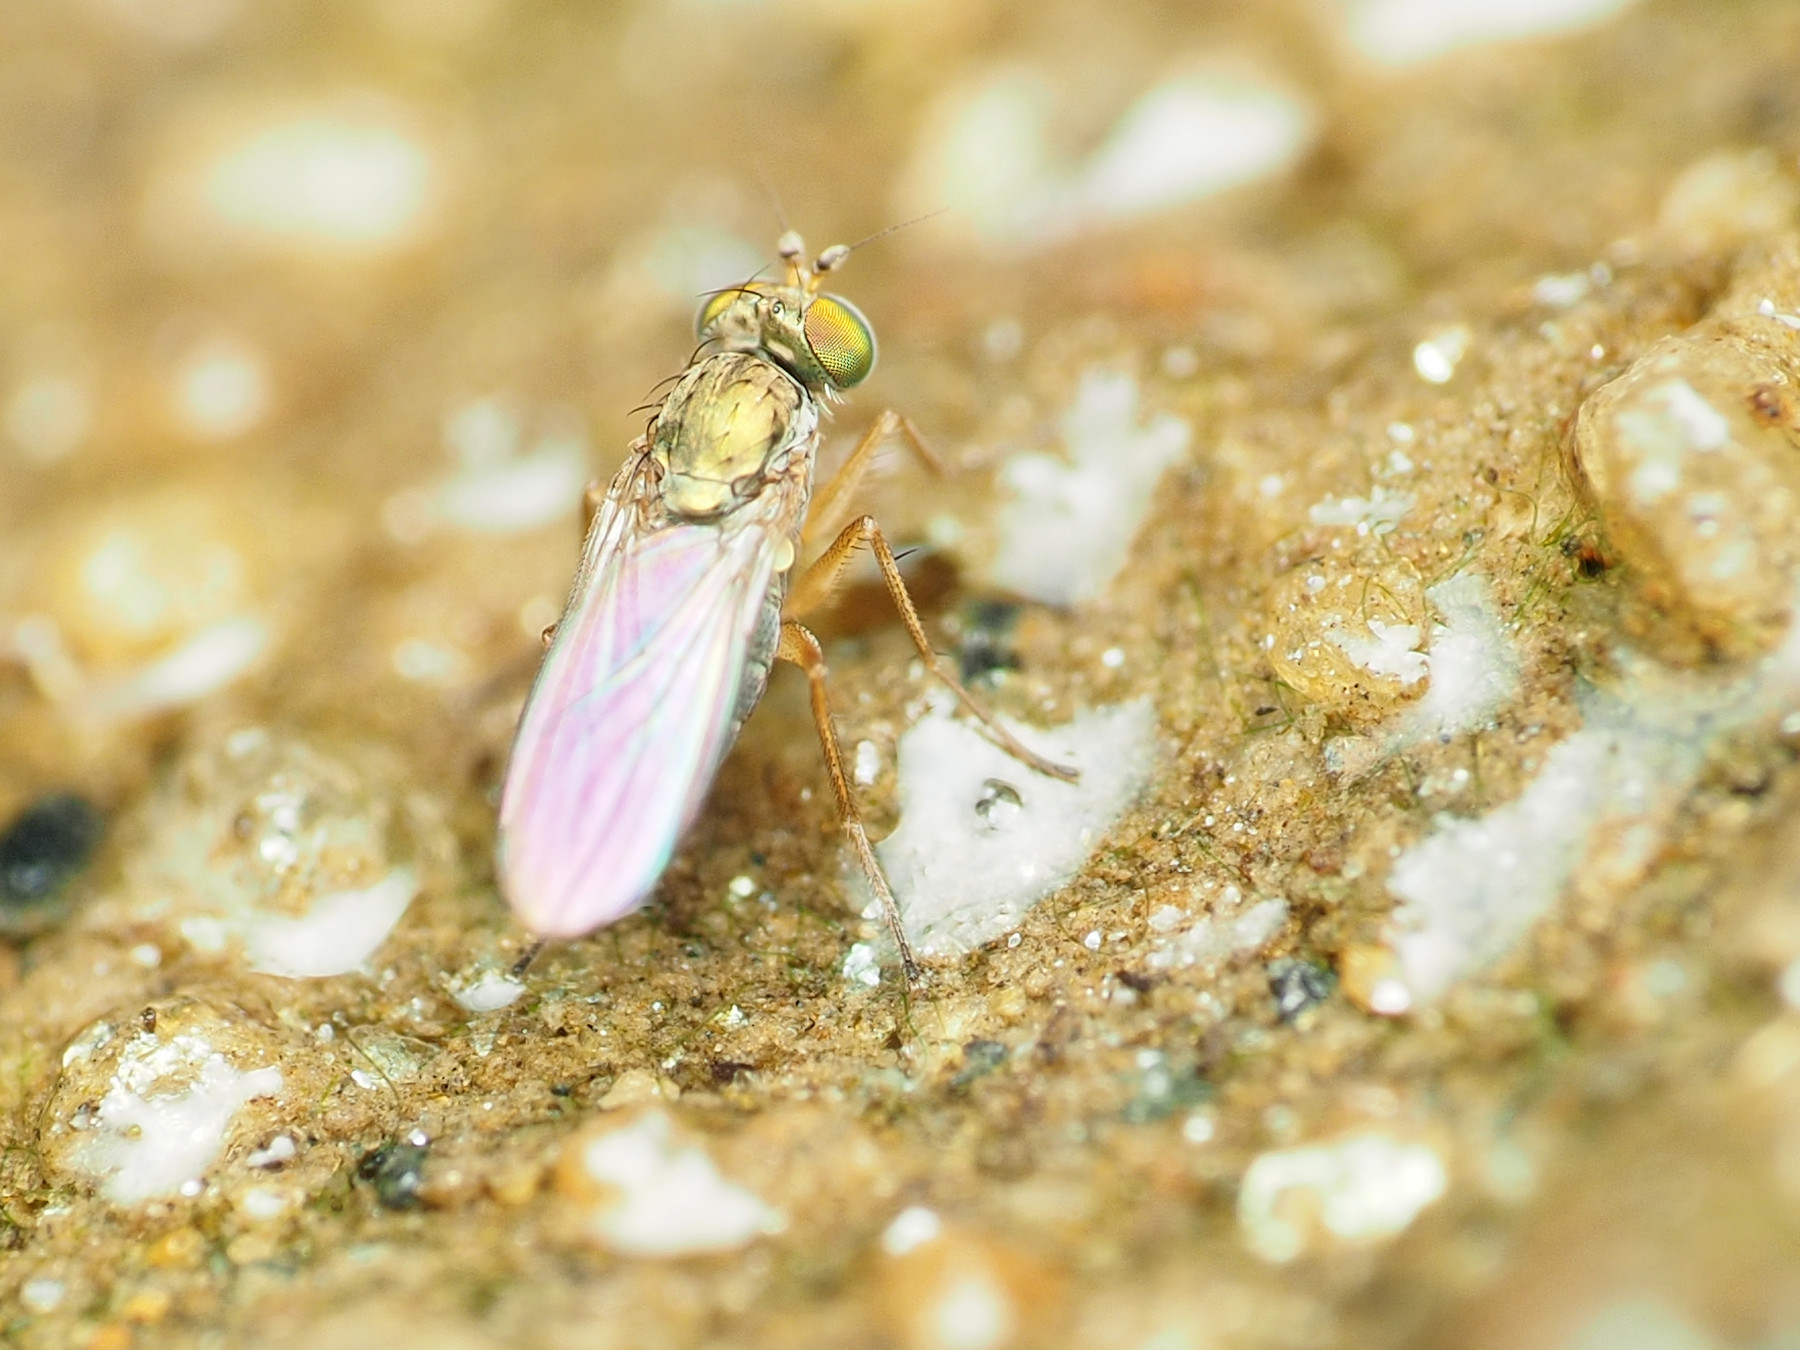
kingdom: Animalia
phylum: Arthropoda
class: Insecta
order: Diptera
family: Dolichopodidae
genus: Chrysotus
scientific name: Chrysotus picticornis
